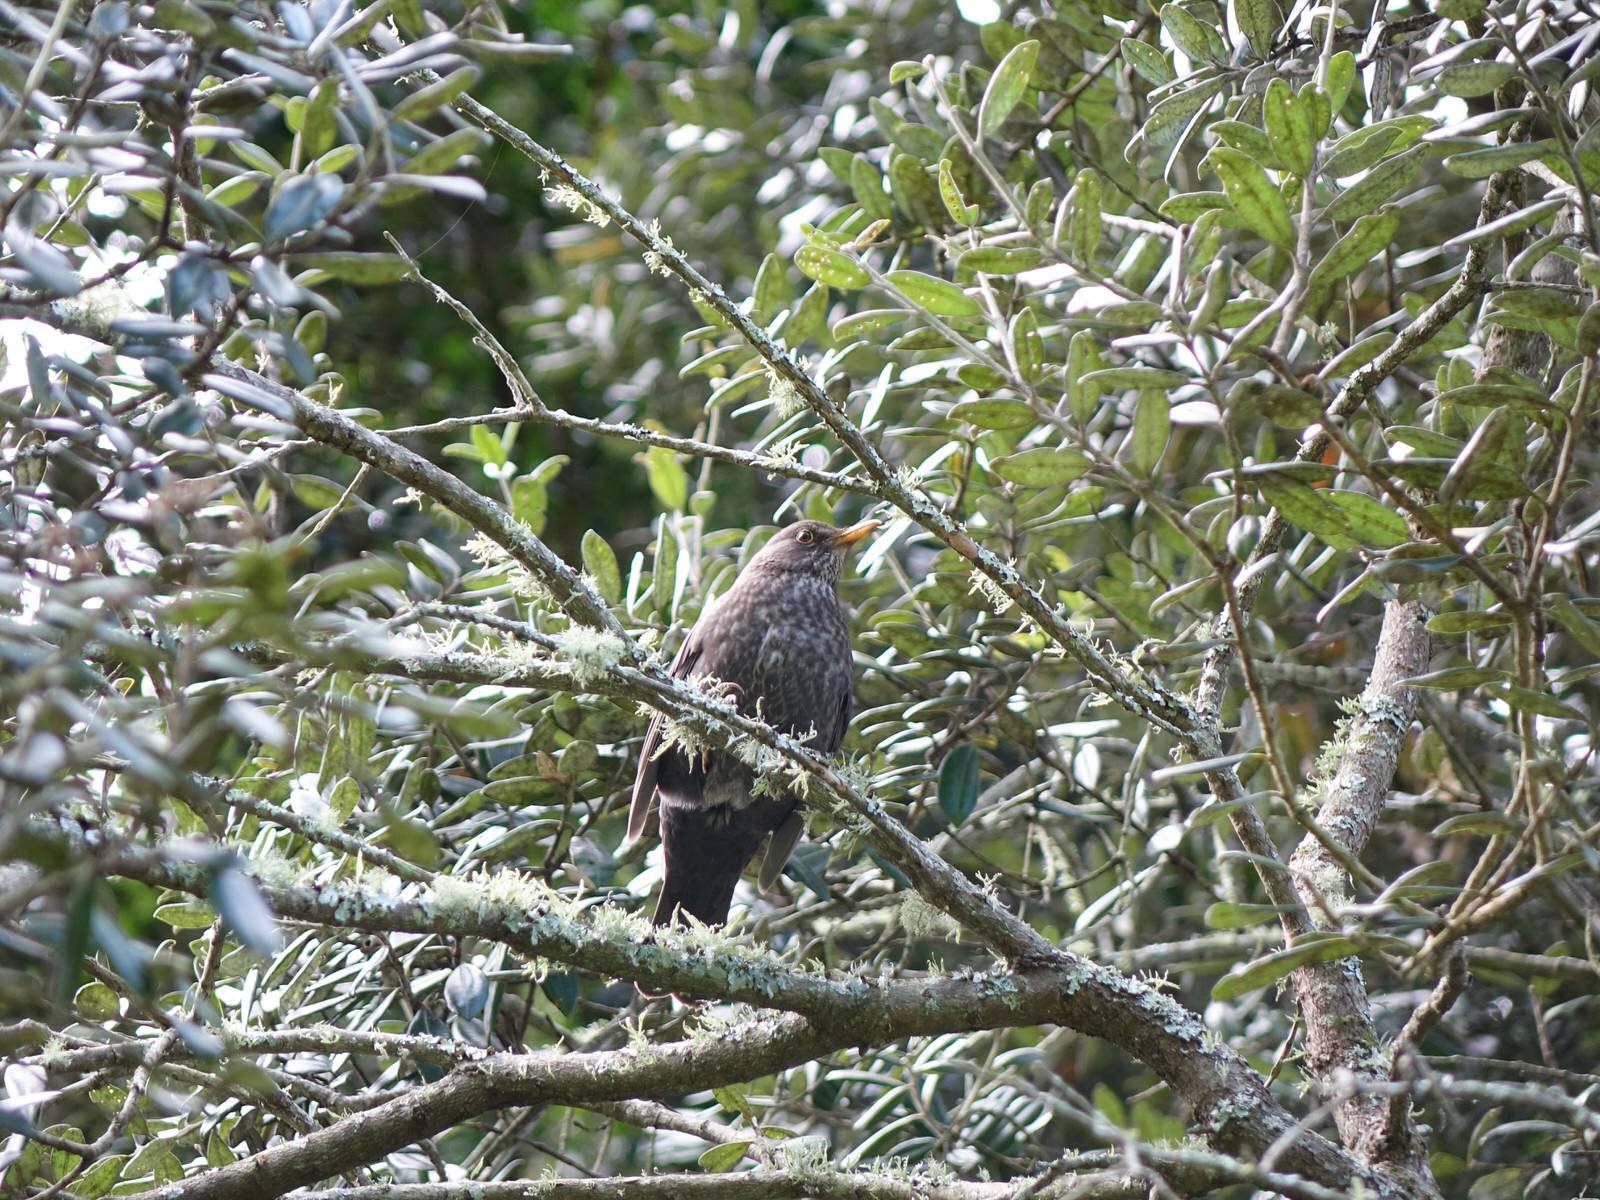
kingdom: Animalia
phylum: Chordata
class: Aves
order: Passeriformes
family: Turdidae
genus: Turdus
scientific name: Turdus merula
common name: Common blackbird
